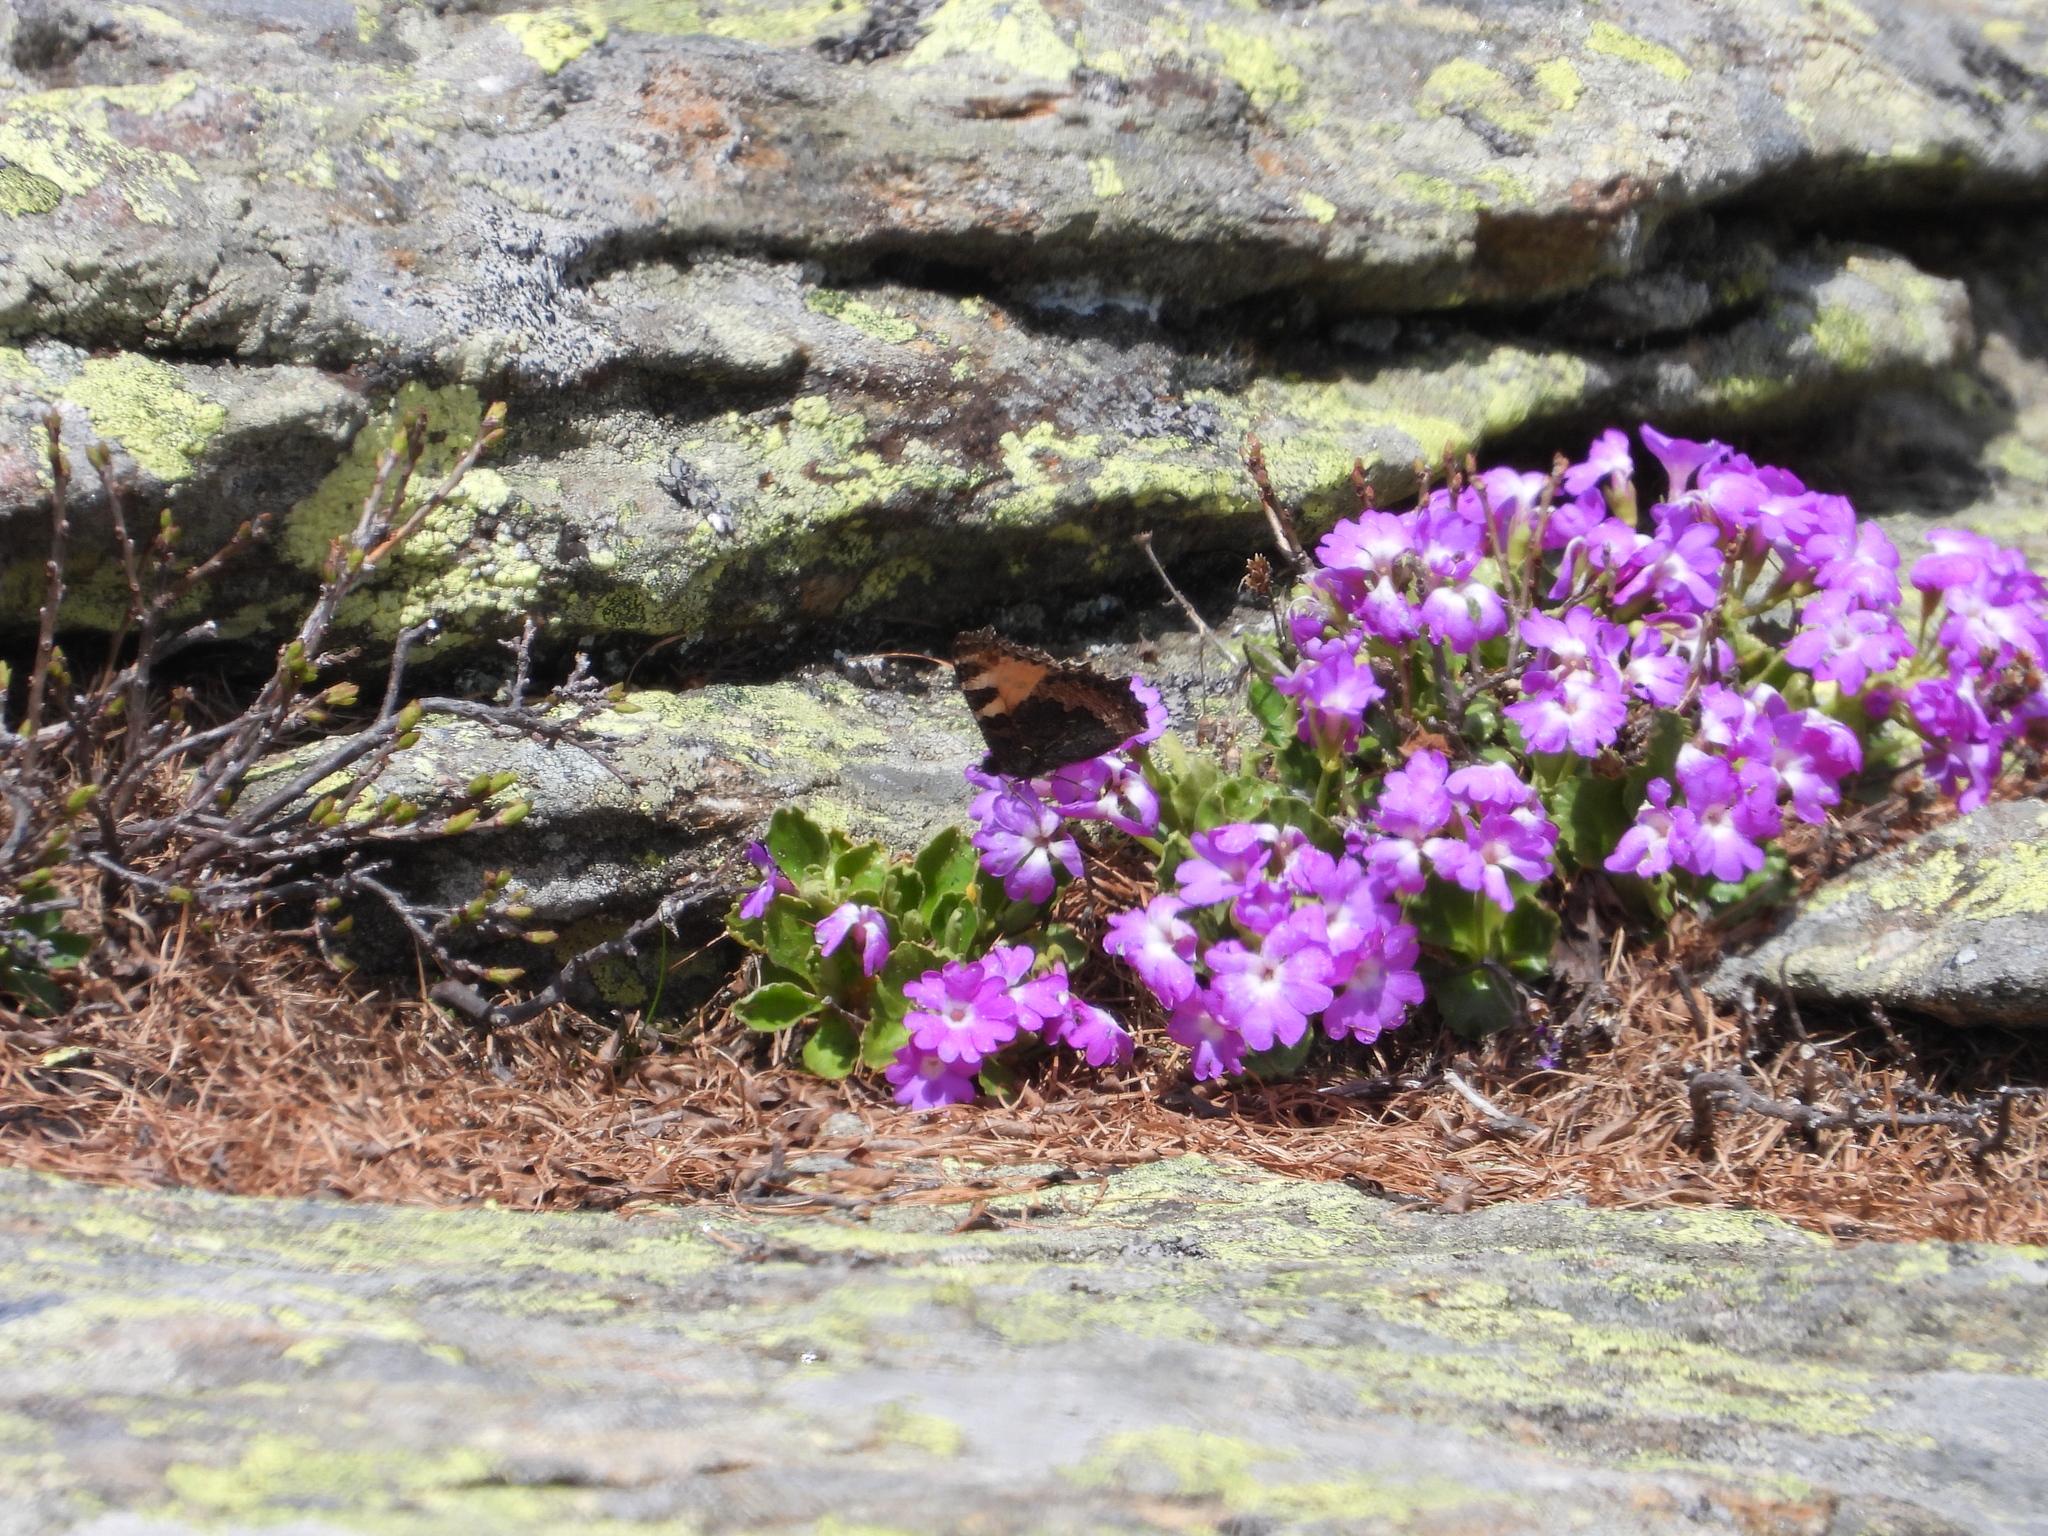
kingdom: Animalia
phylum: Arthropoda
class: Insecta
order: Lepidoptera
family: Nymphalidae
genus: Aglais
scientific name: Aglais urticae
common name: Small tortoiseshell
